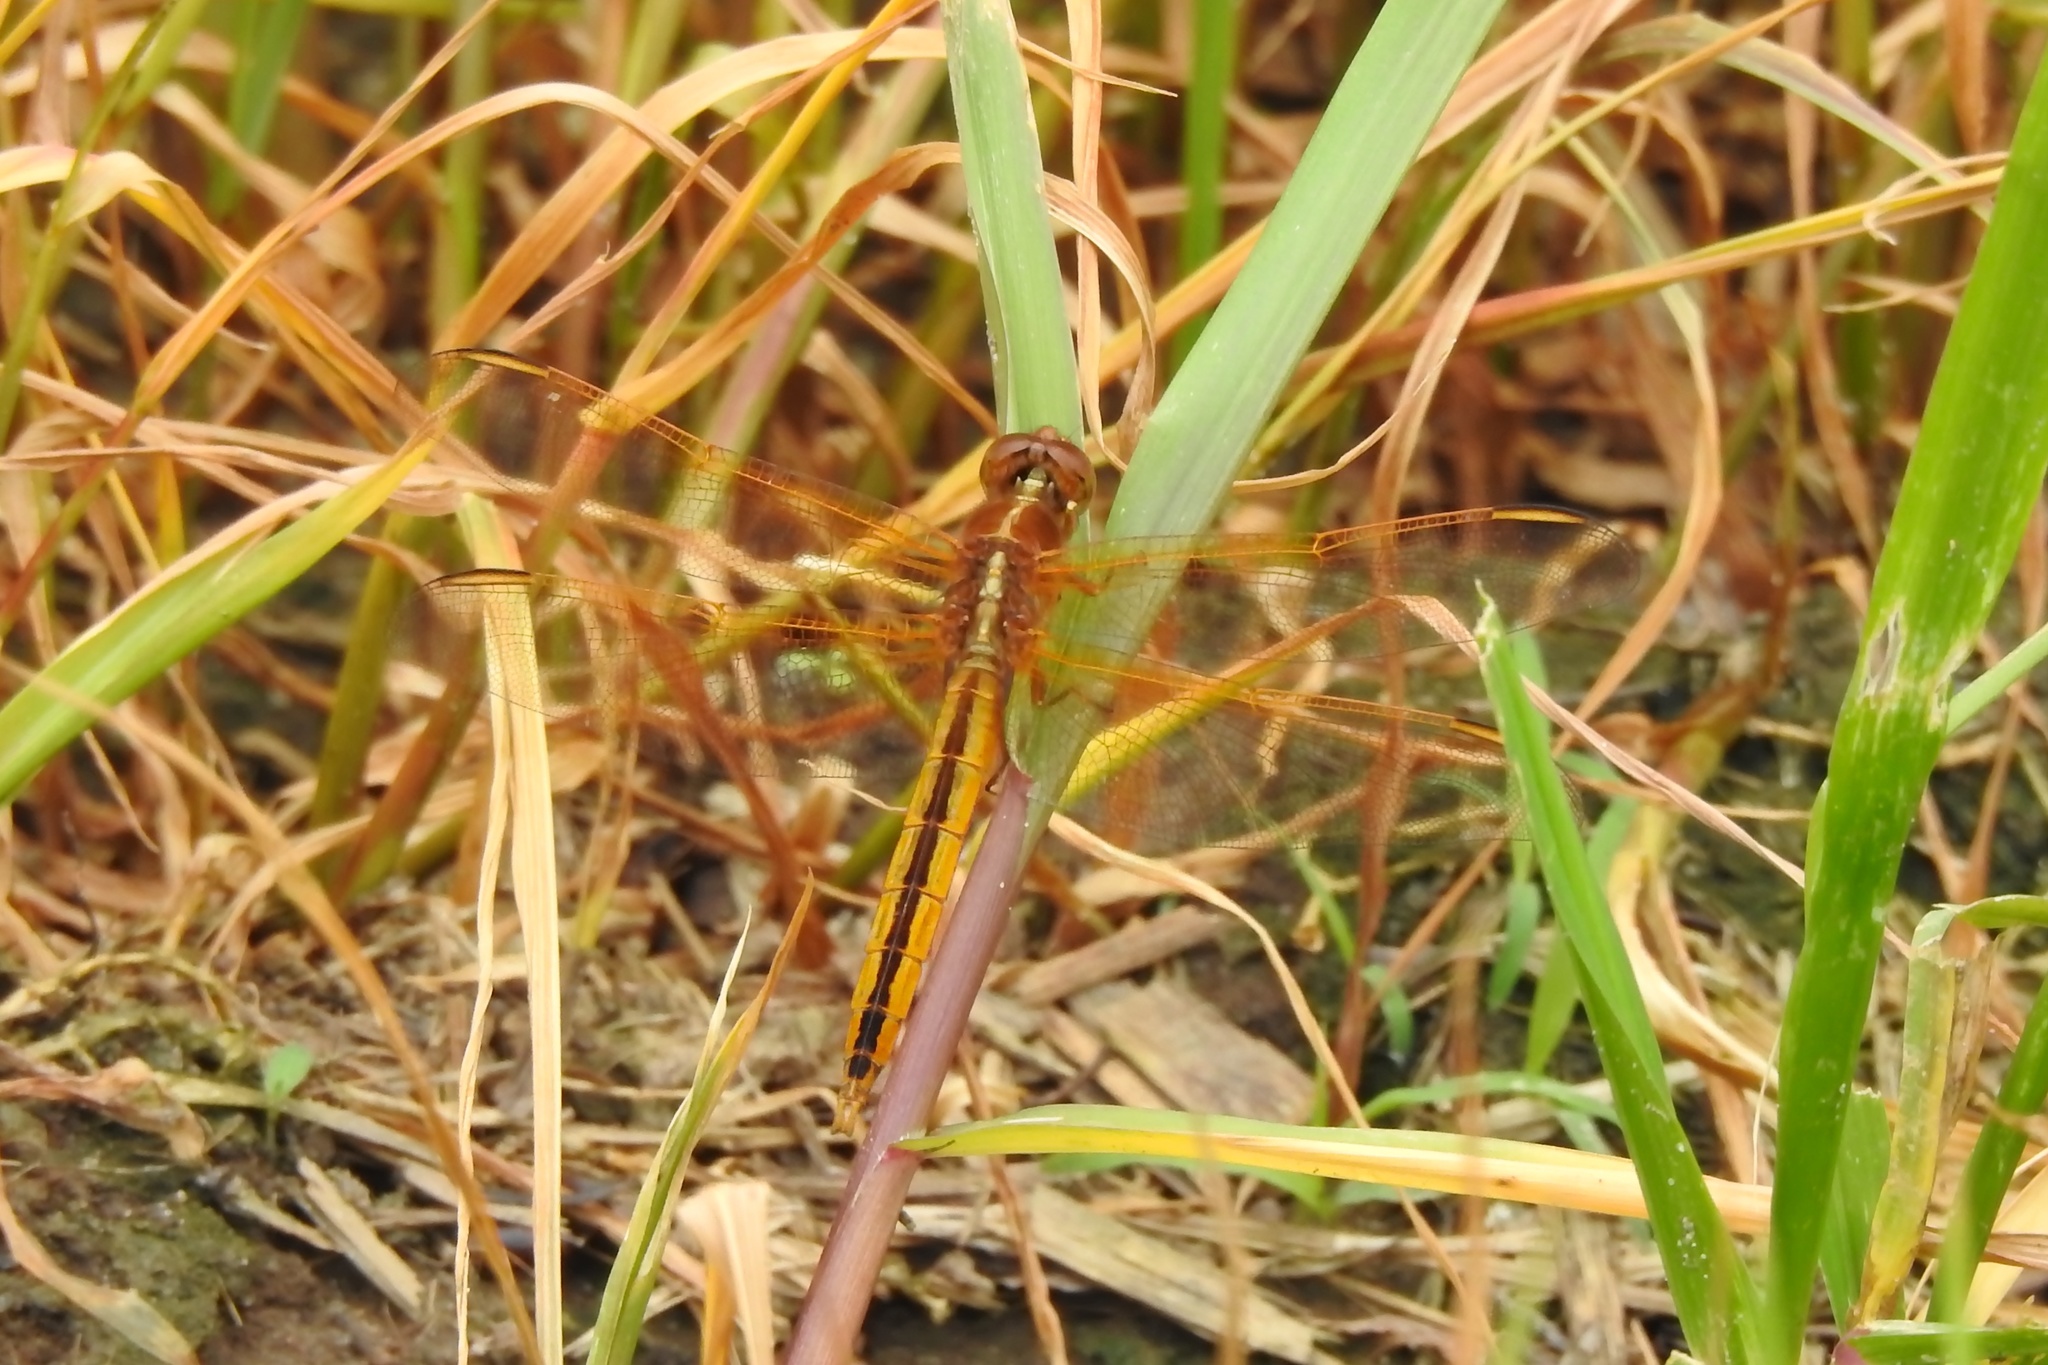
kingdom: Animalia
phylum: Arthropoda
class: Insecta
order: Odonata
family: Libellulidae
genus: Libellula
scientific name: Libellula needhami
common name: Needham's skimmer
